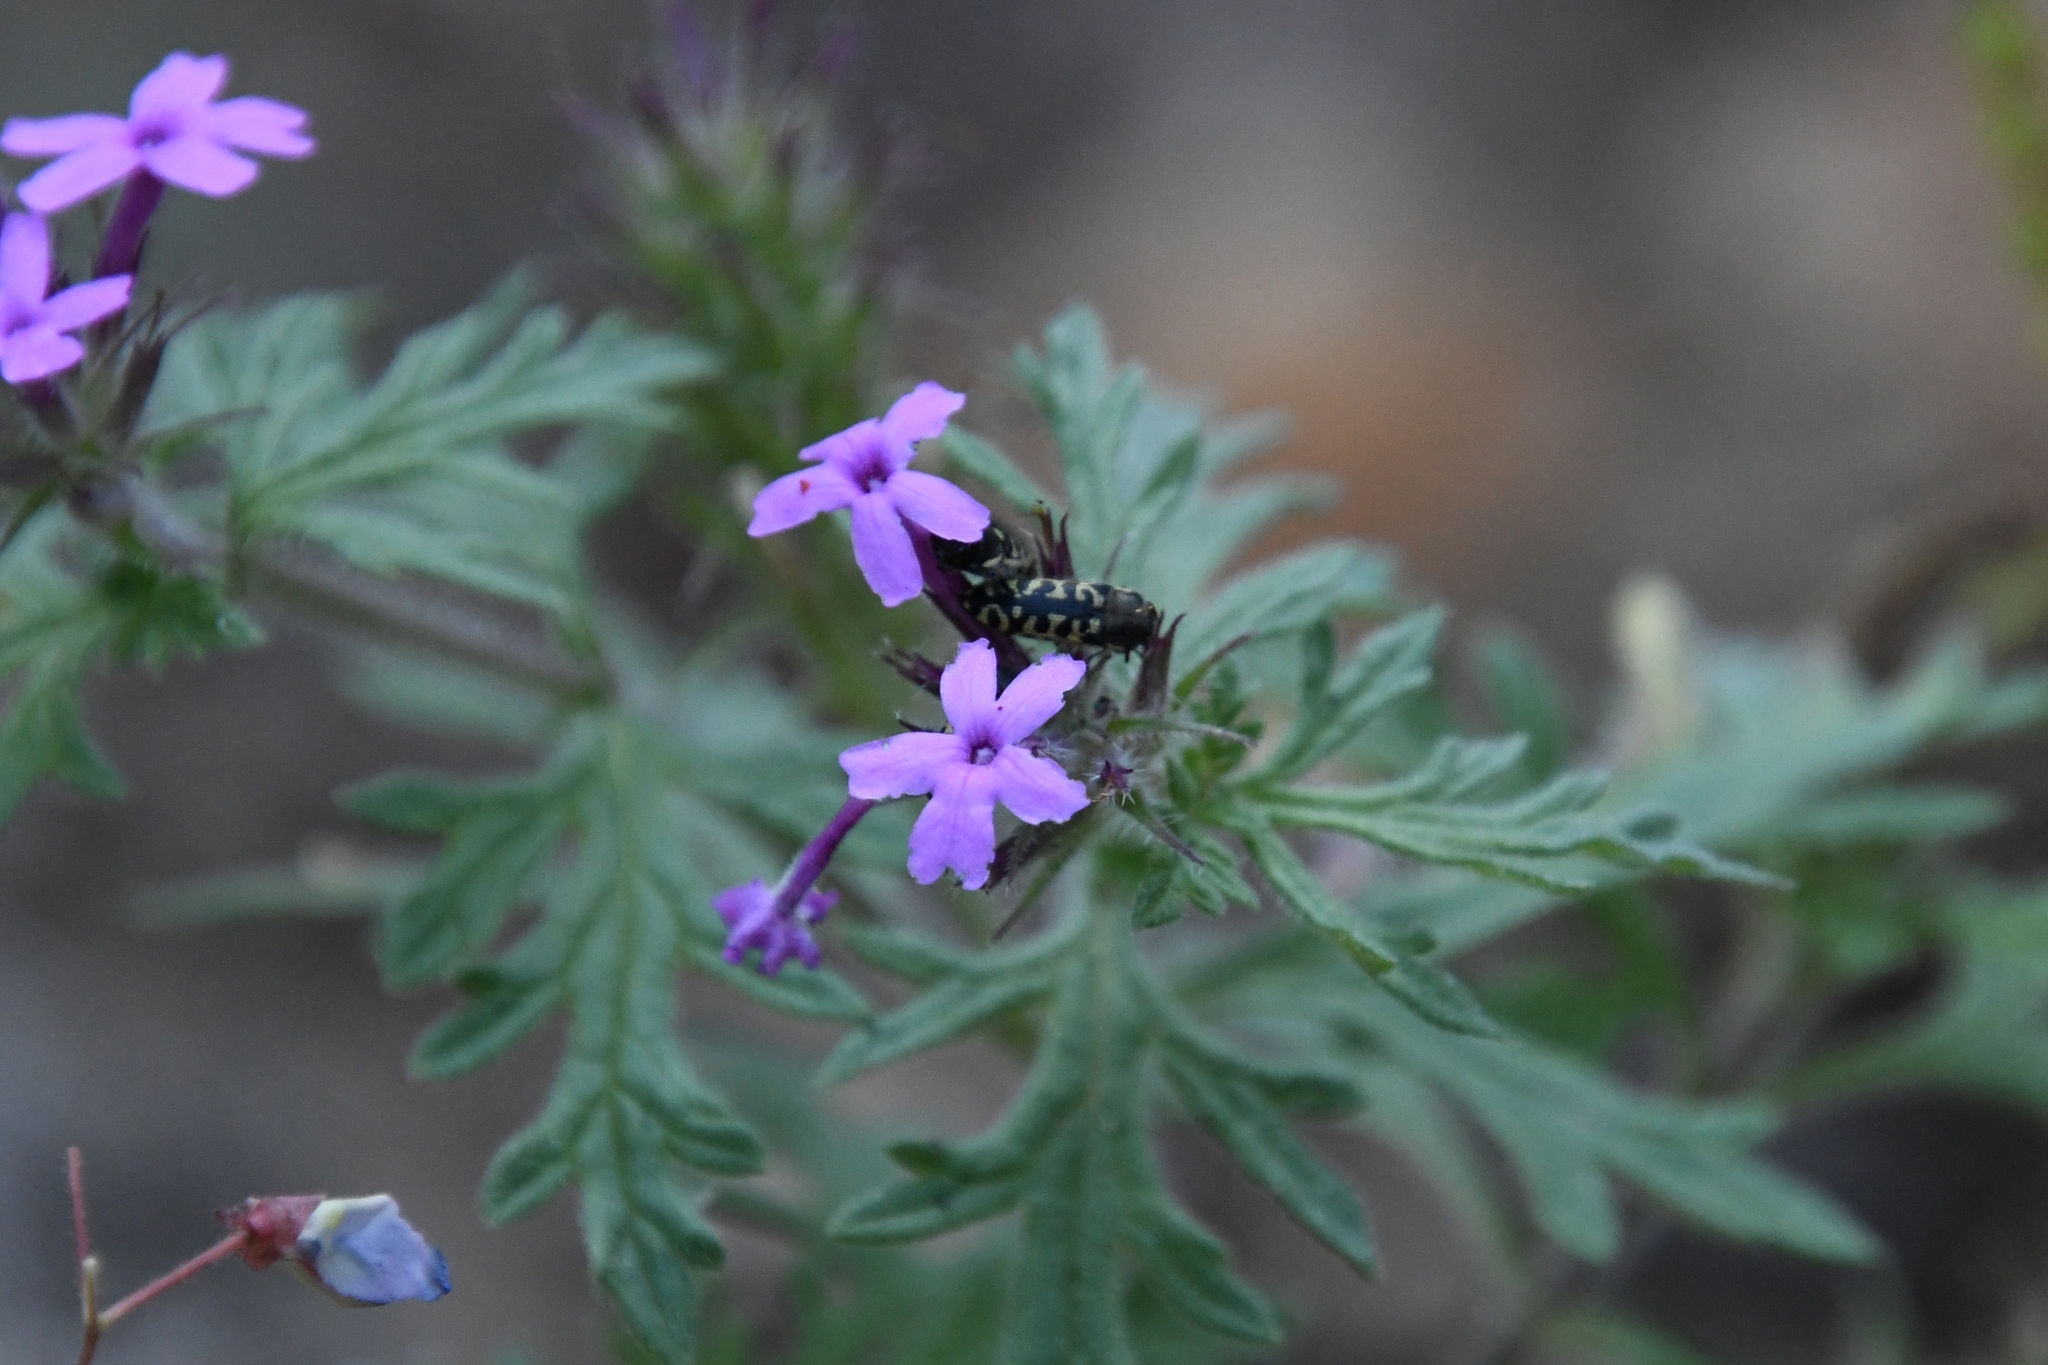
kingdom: Animalia
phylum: Arthropoda
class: Insecta
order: Coleoptera
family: Buprestidae
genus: Acmaeodera
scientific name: Acmaeodera solitaria
